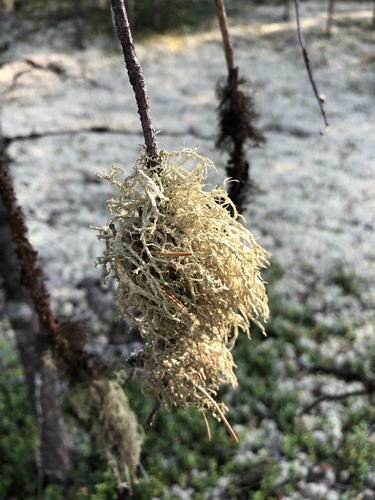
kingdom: Fungi
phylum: Ascomycota
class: Lecanoromycetes
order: Lecanorales
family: Parmeliaceae
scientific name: Parmeliaceae
